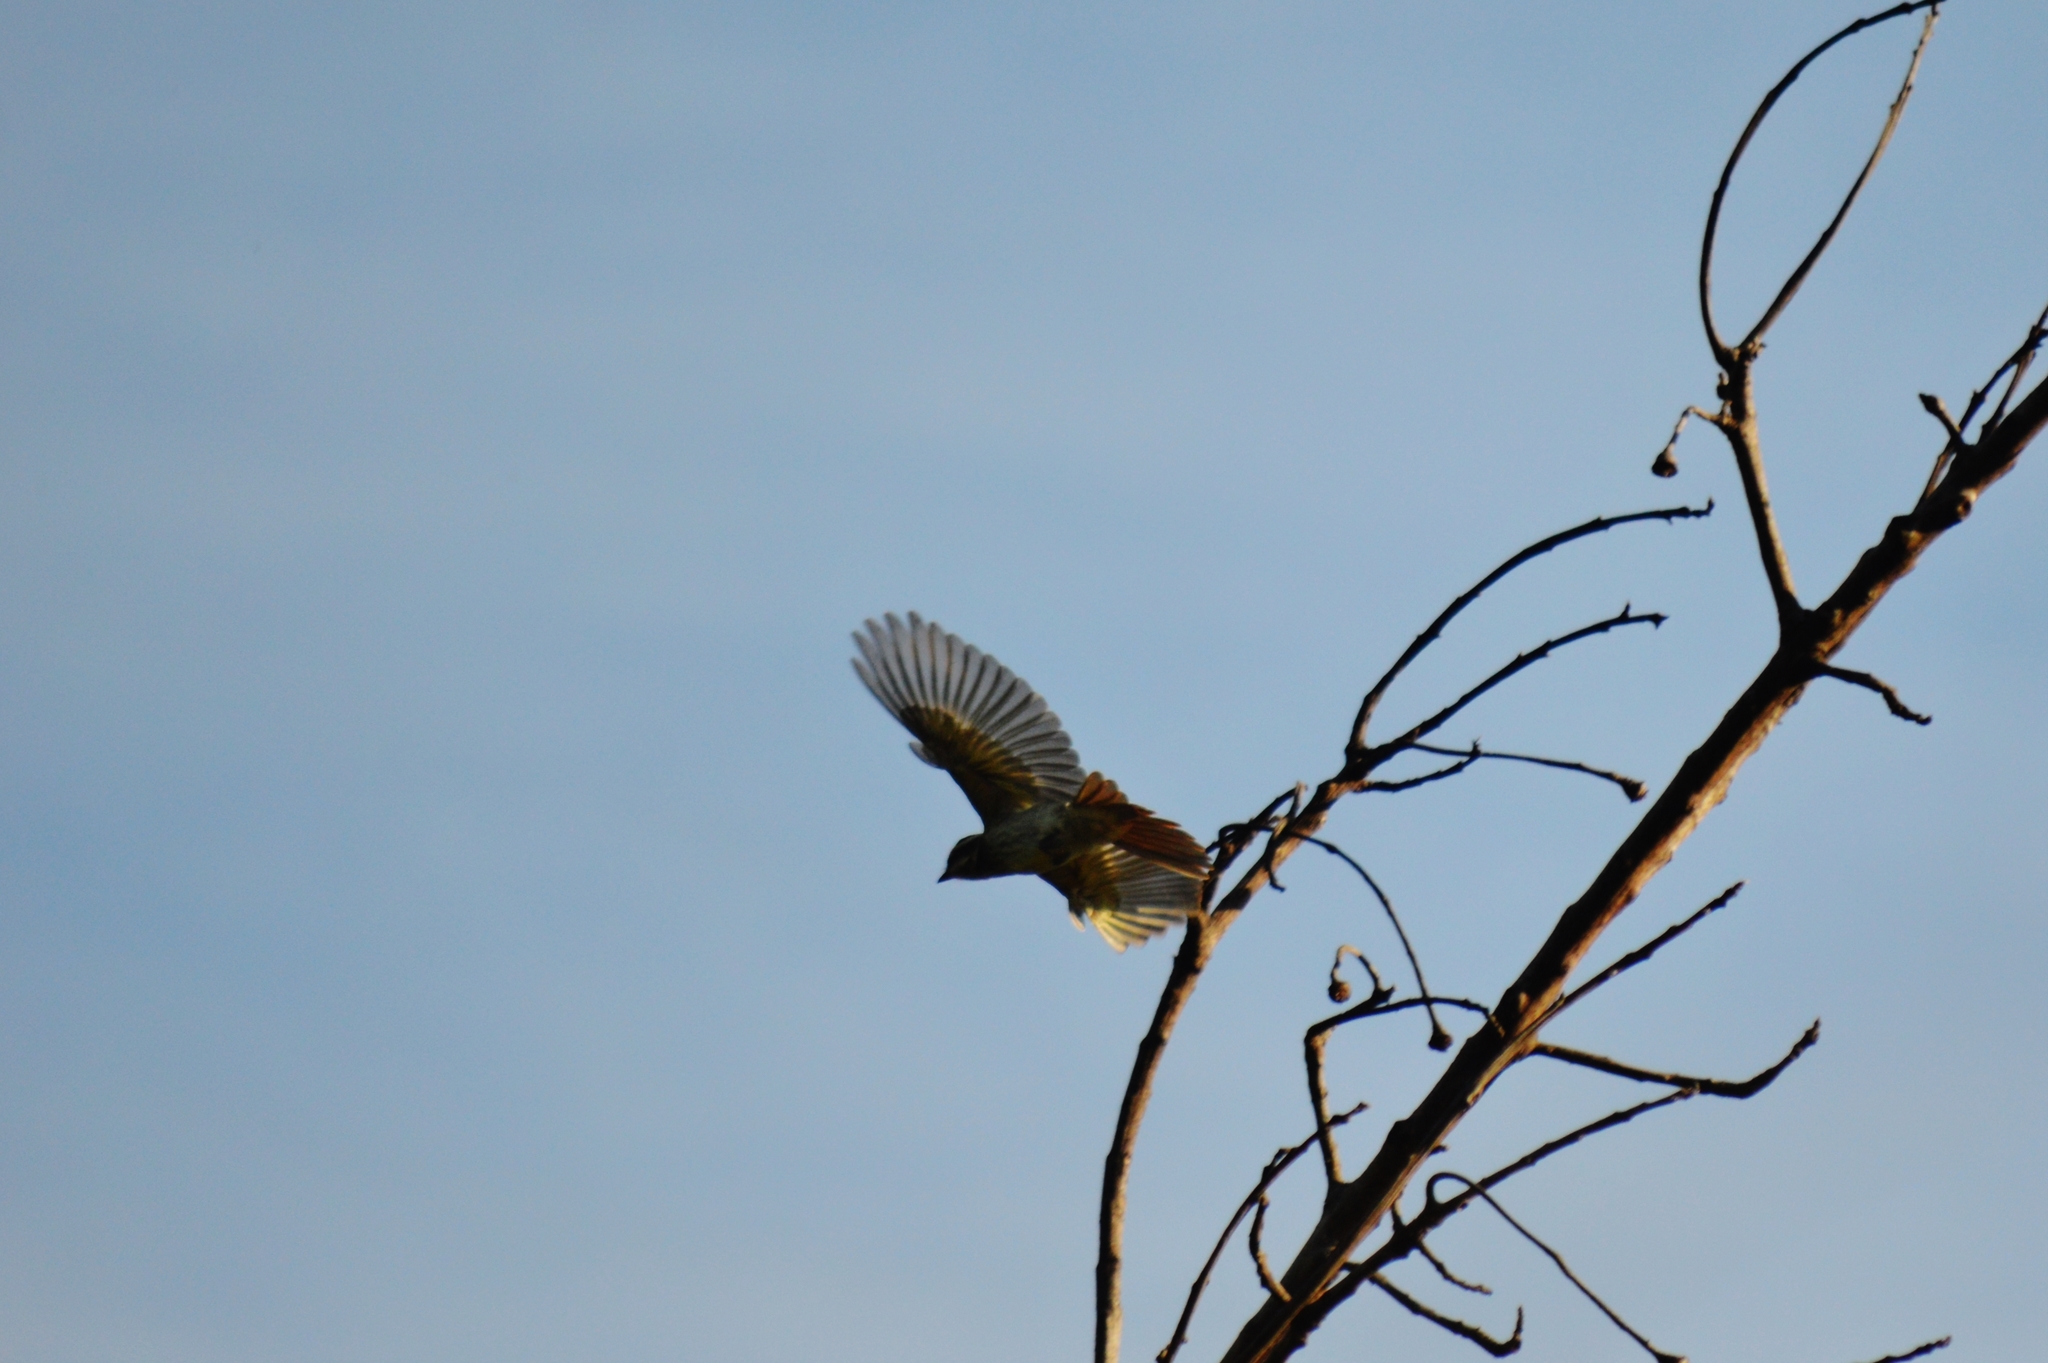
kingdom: Animalia
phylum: Chordata
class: Aves
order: Passeriformes
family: Tyrannidae
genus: Empidonomus
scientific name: Empidonomus varius
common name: Variegated flycatcher
